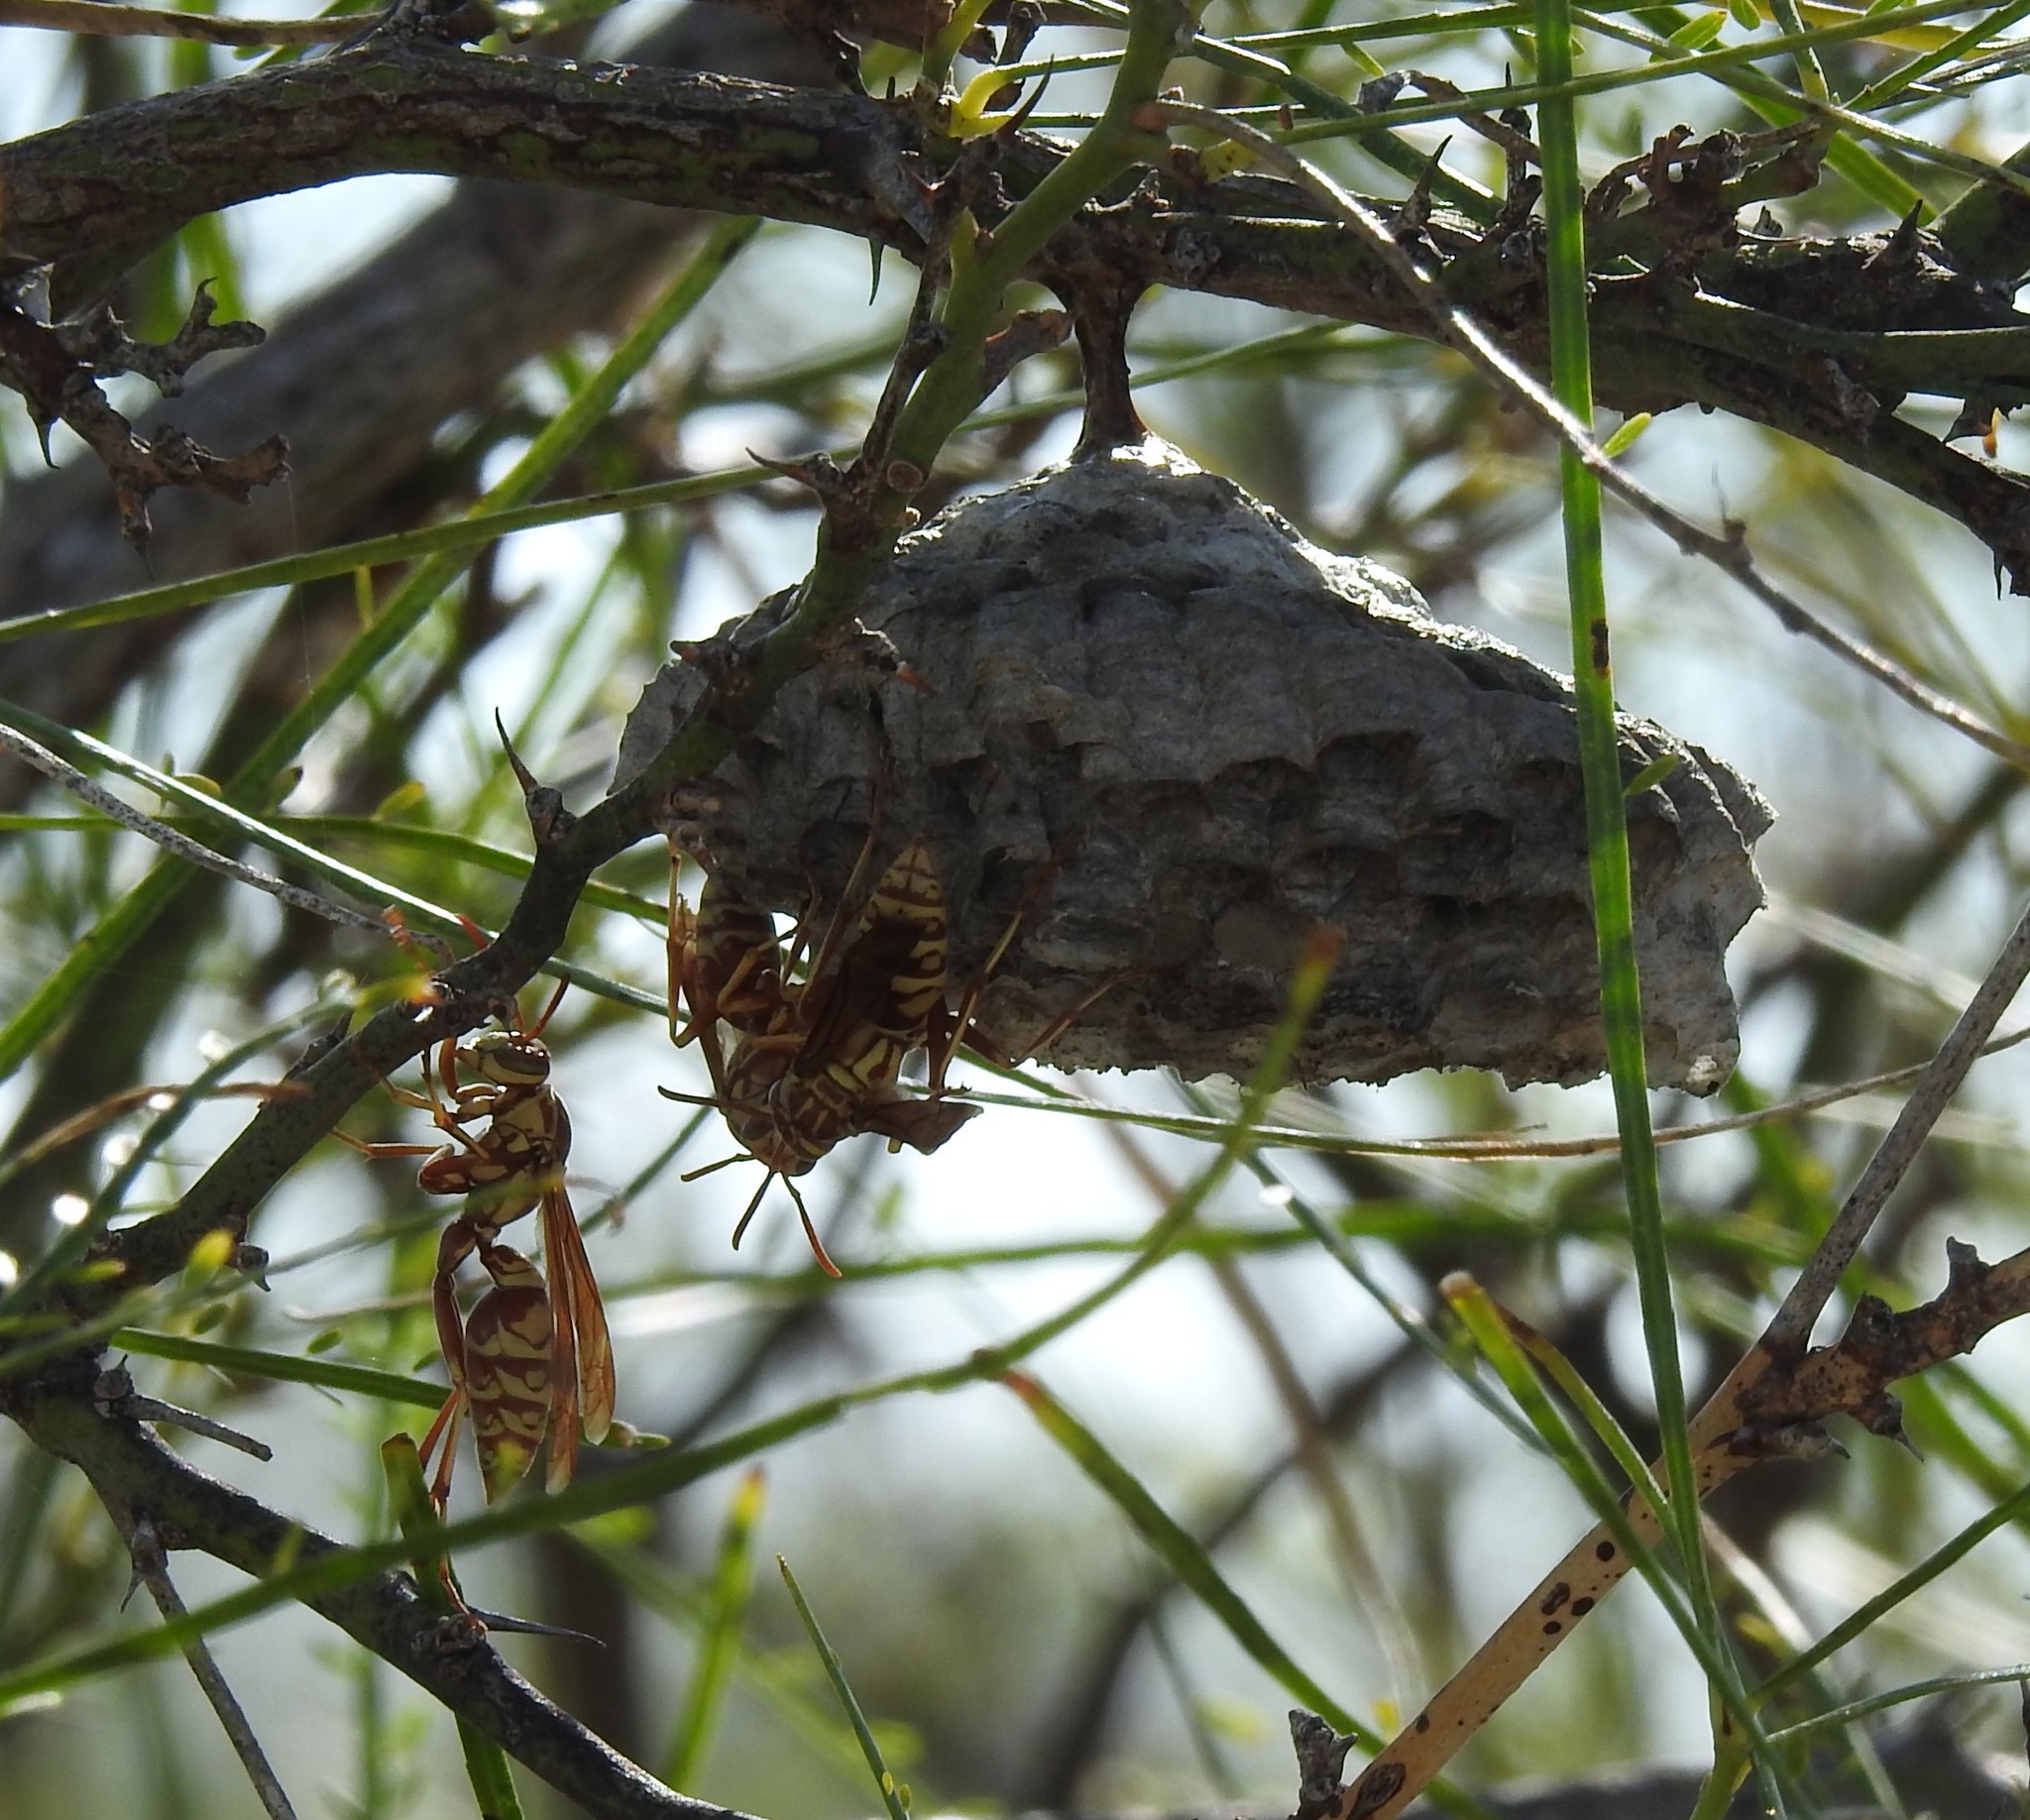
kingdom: Animalia
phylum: Arthropoda
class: Insecta
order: Hymenoptera
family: Eumenidae
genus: Polistes
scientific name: Polistes apachus
